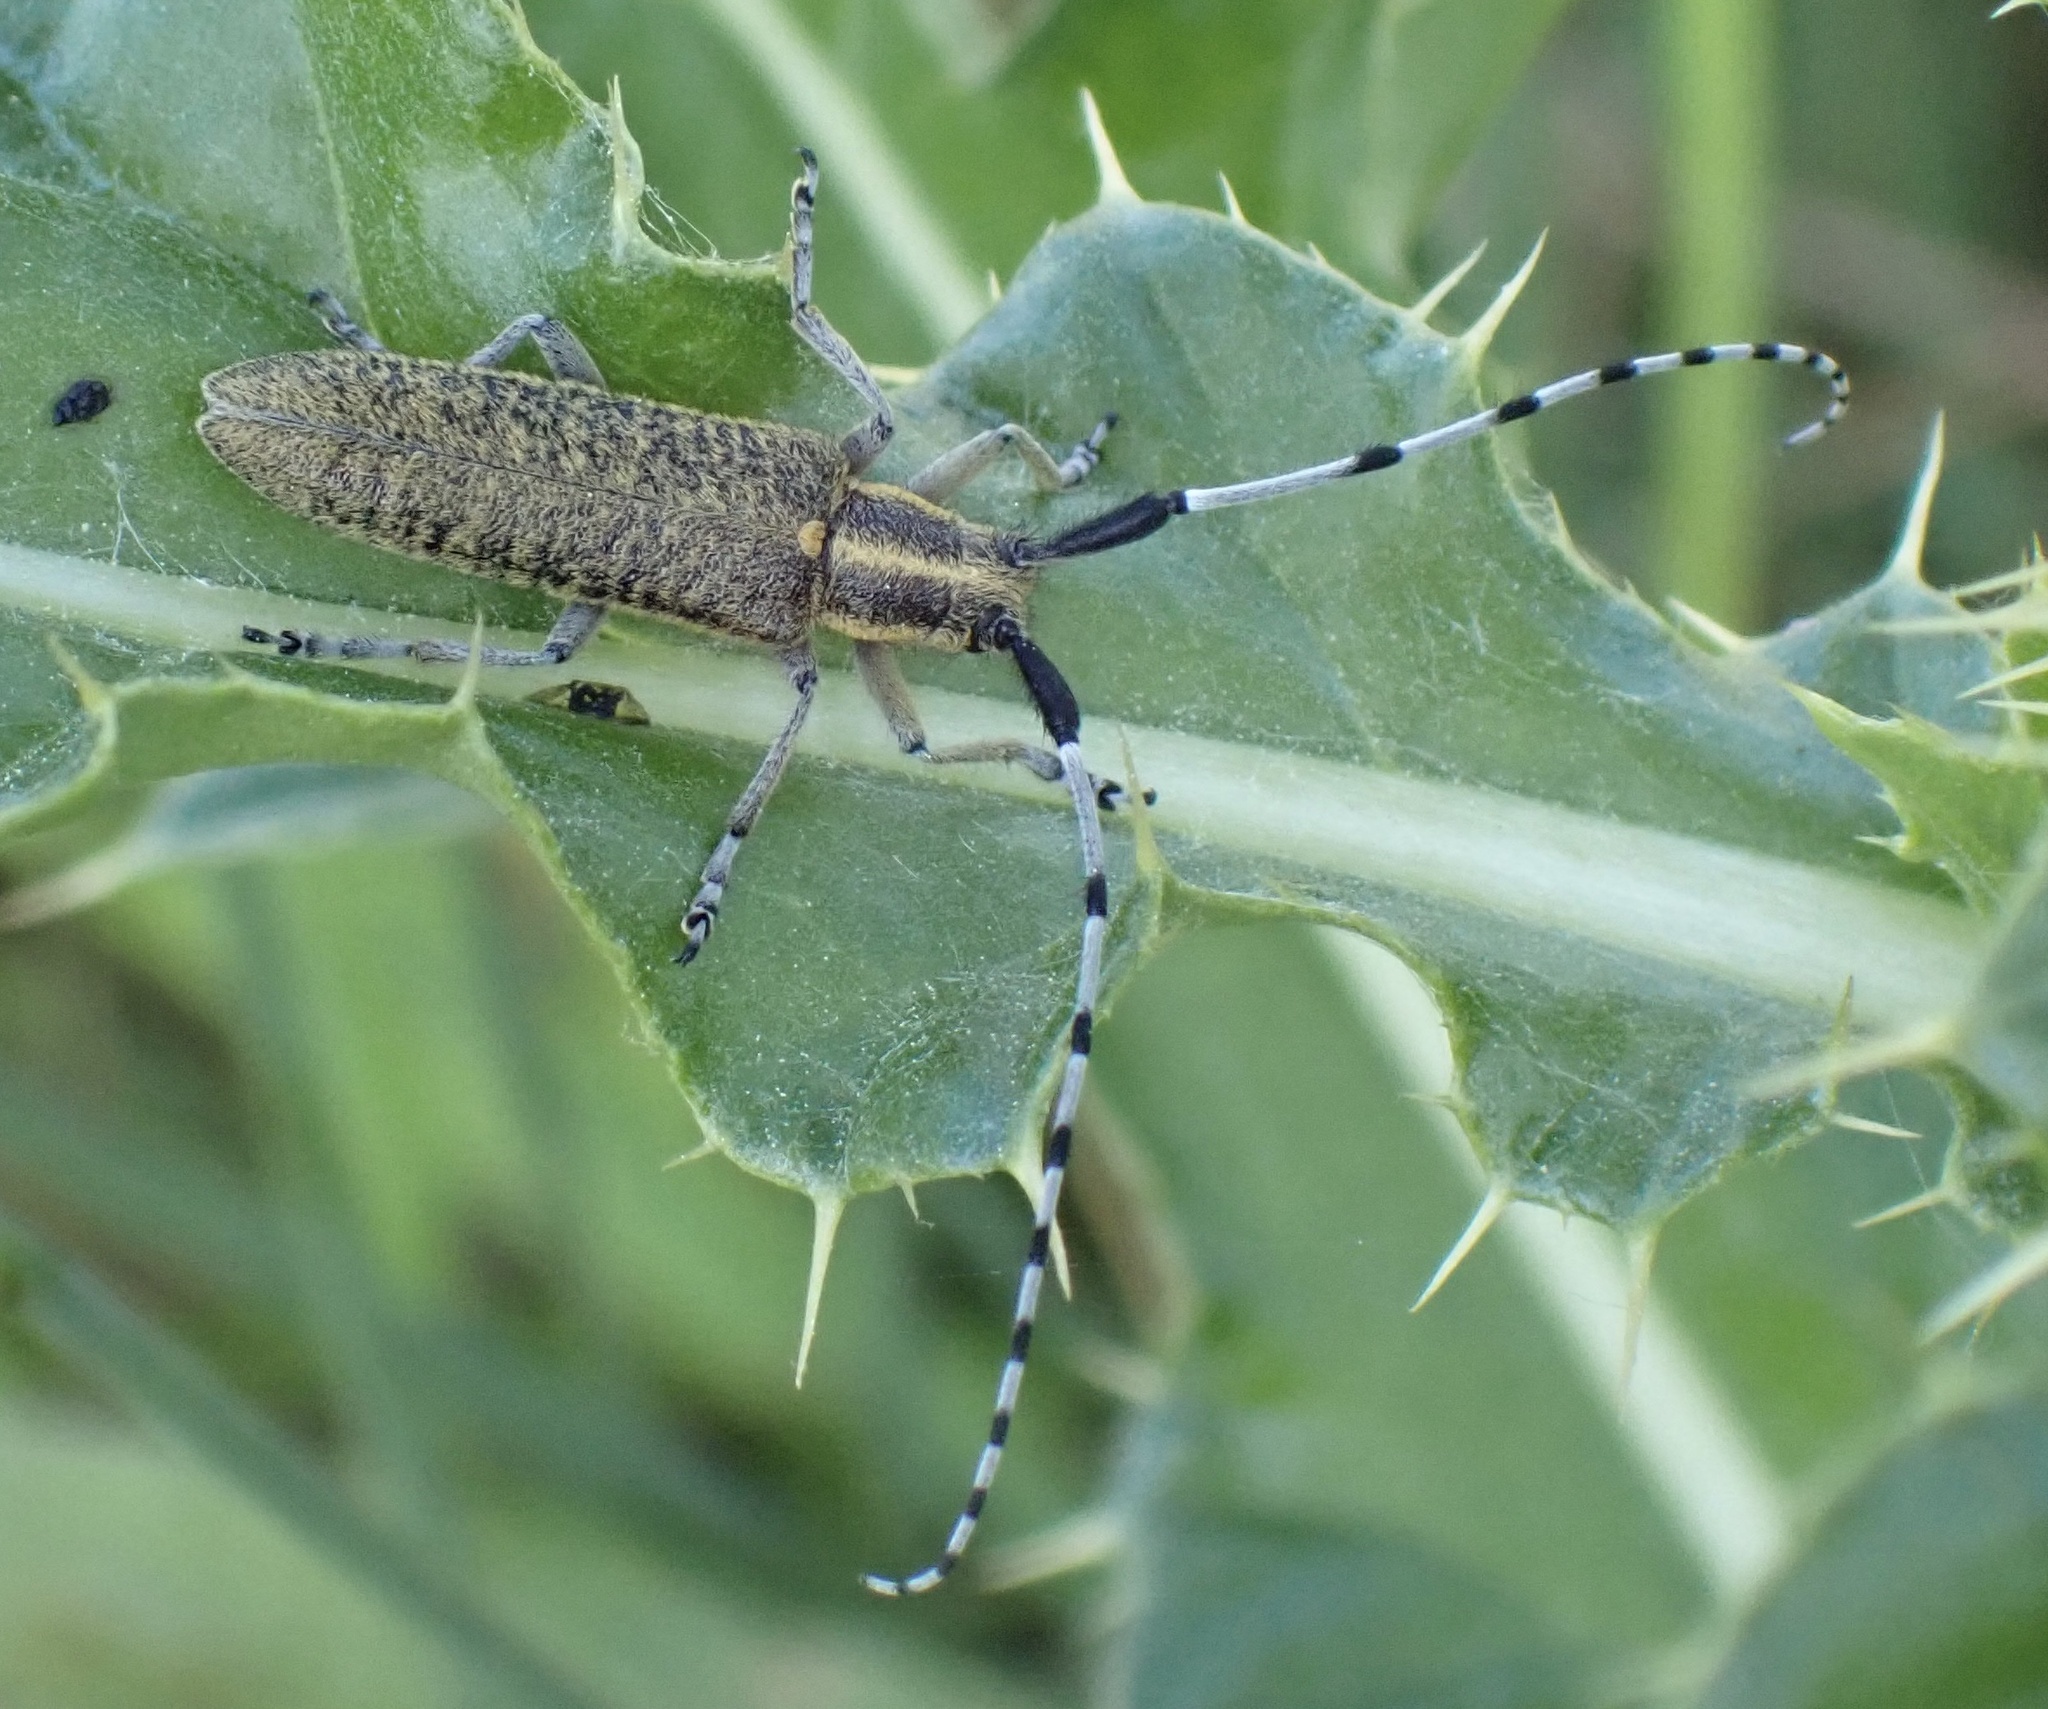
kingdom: Animalia
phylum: Arthropoda
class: Insecta
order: Coleoptera
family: Cerambycidae
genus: Agapanthia
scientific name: Agapanthia villosoviridescens
